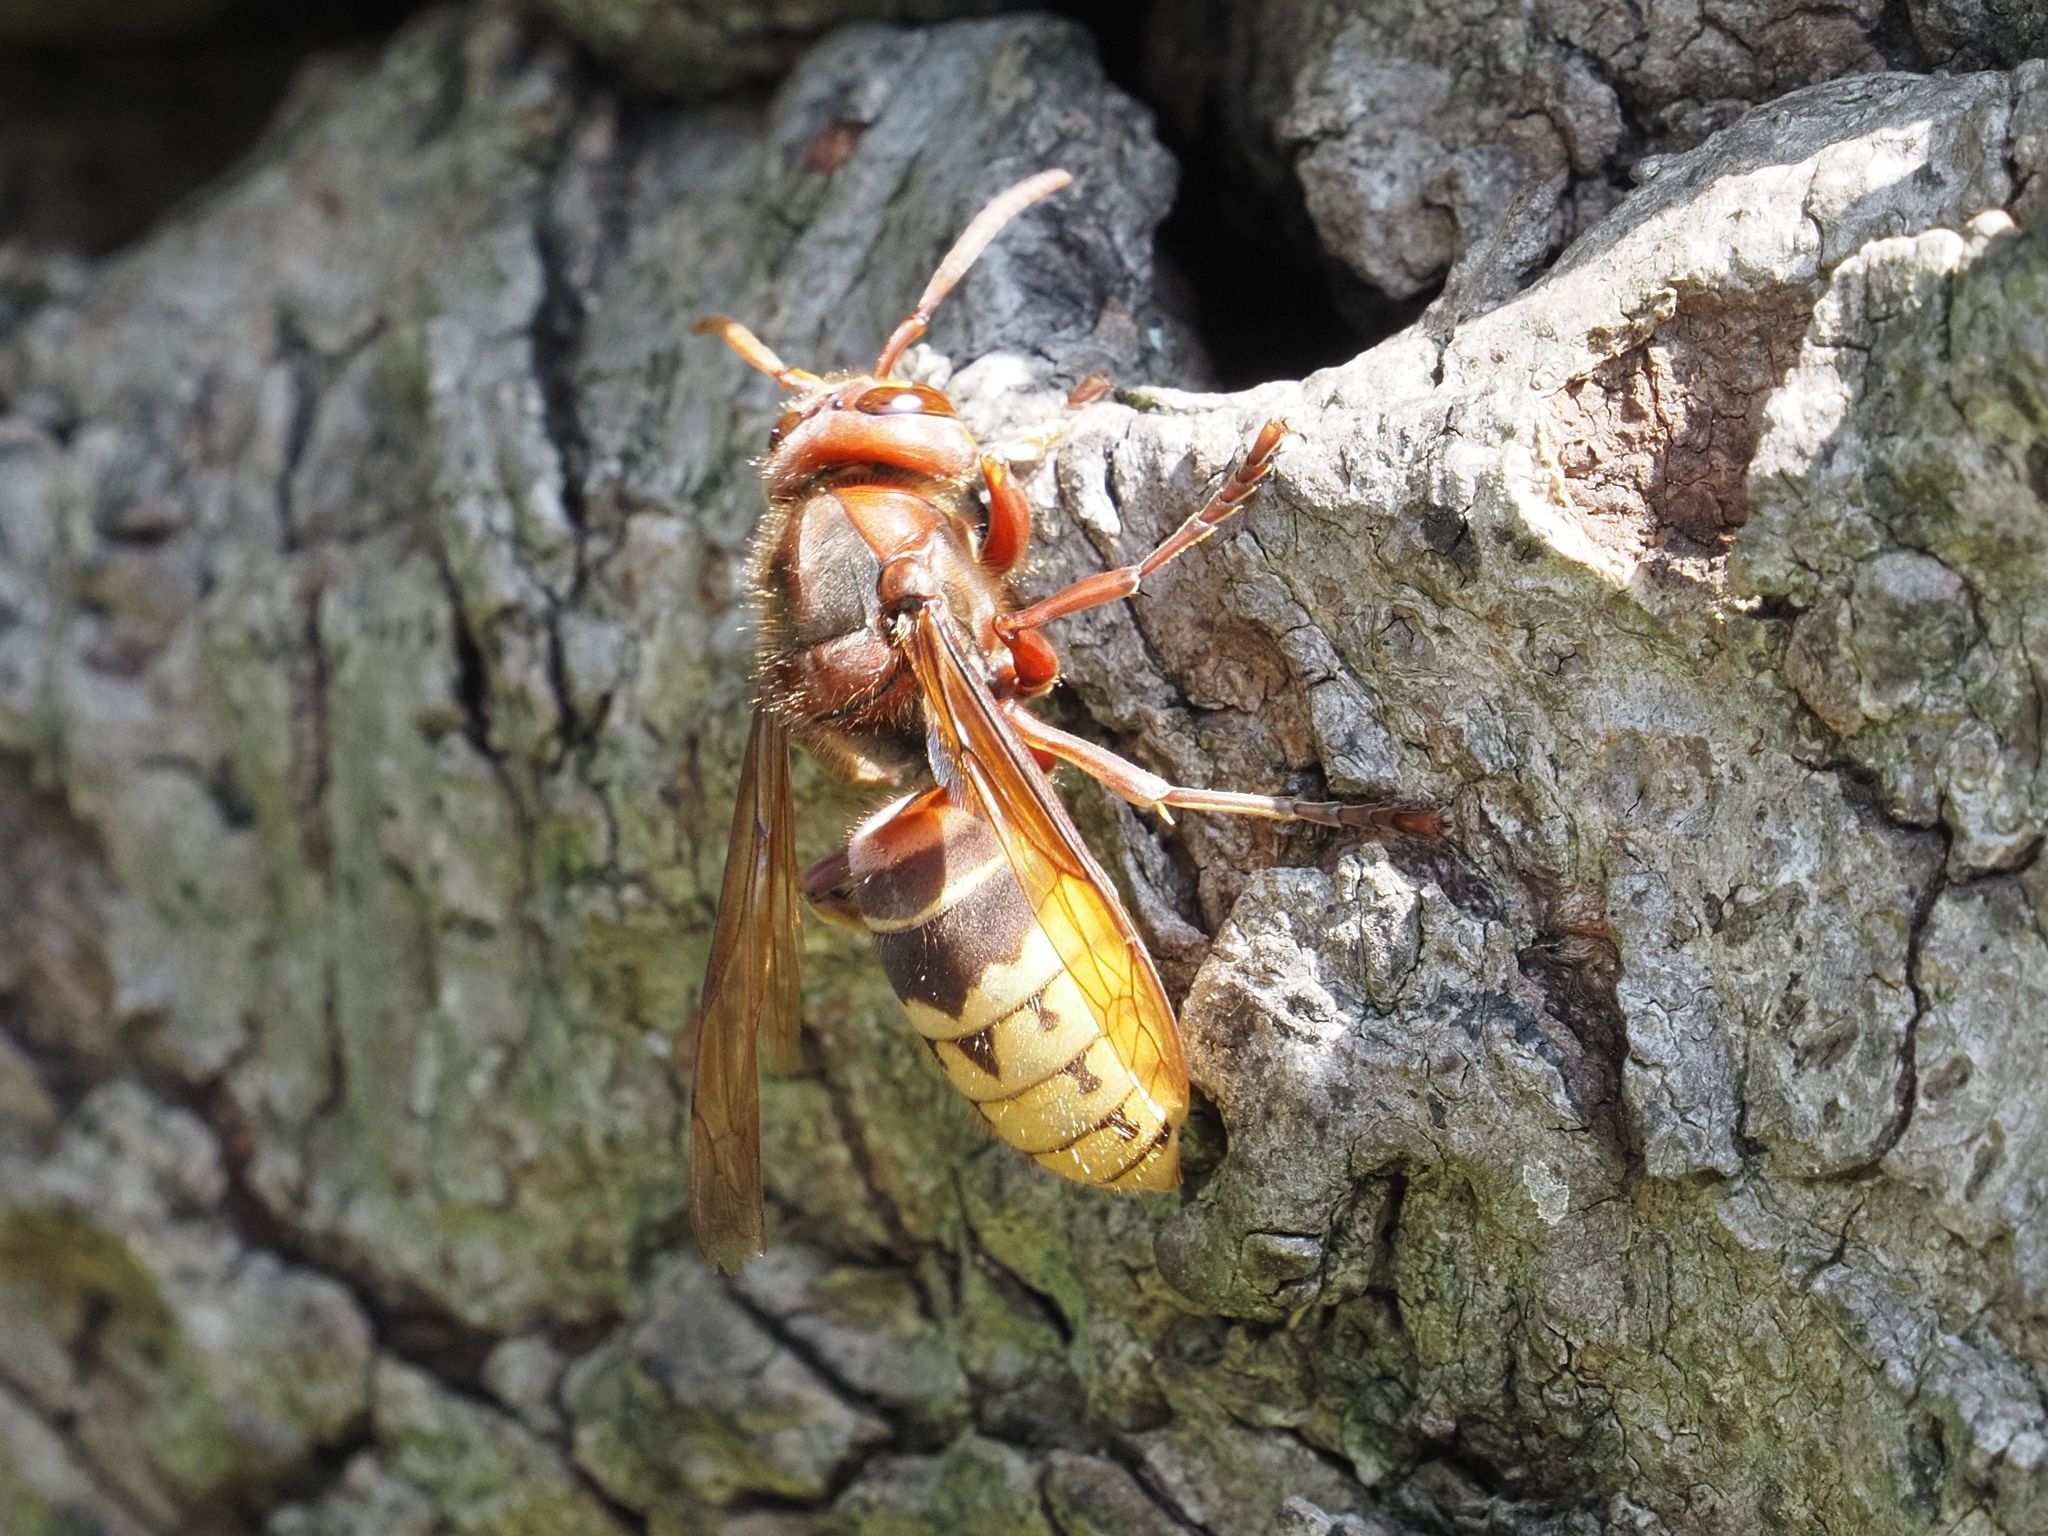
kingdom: Animalia
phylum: Arthropoda
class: Insecta
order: Hymenoptera
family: Vespidae
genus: Vespa
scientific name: Vespa crabro
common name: Hornet
